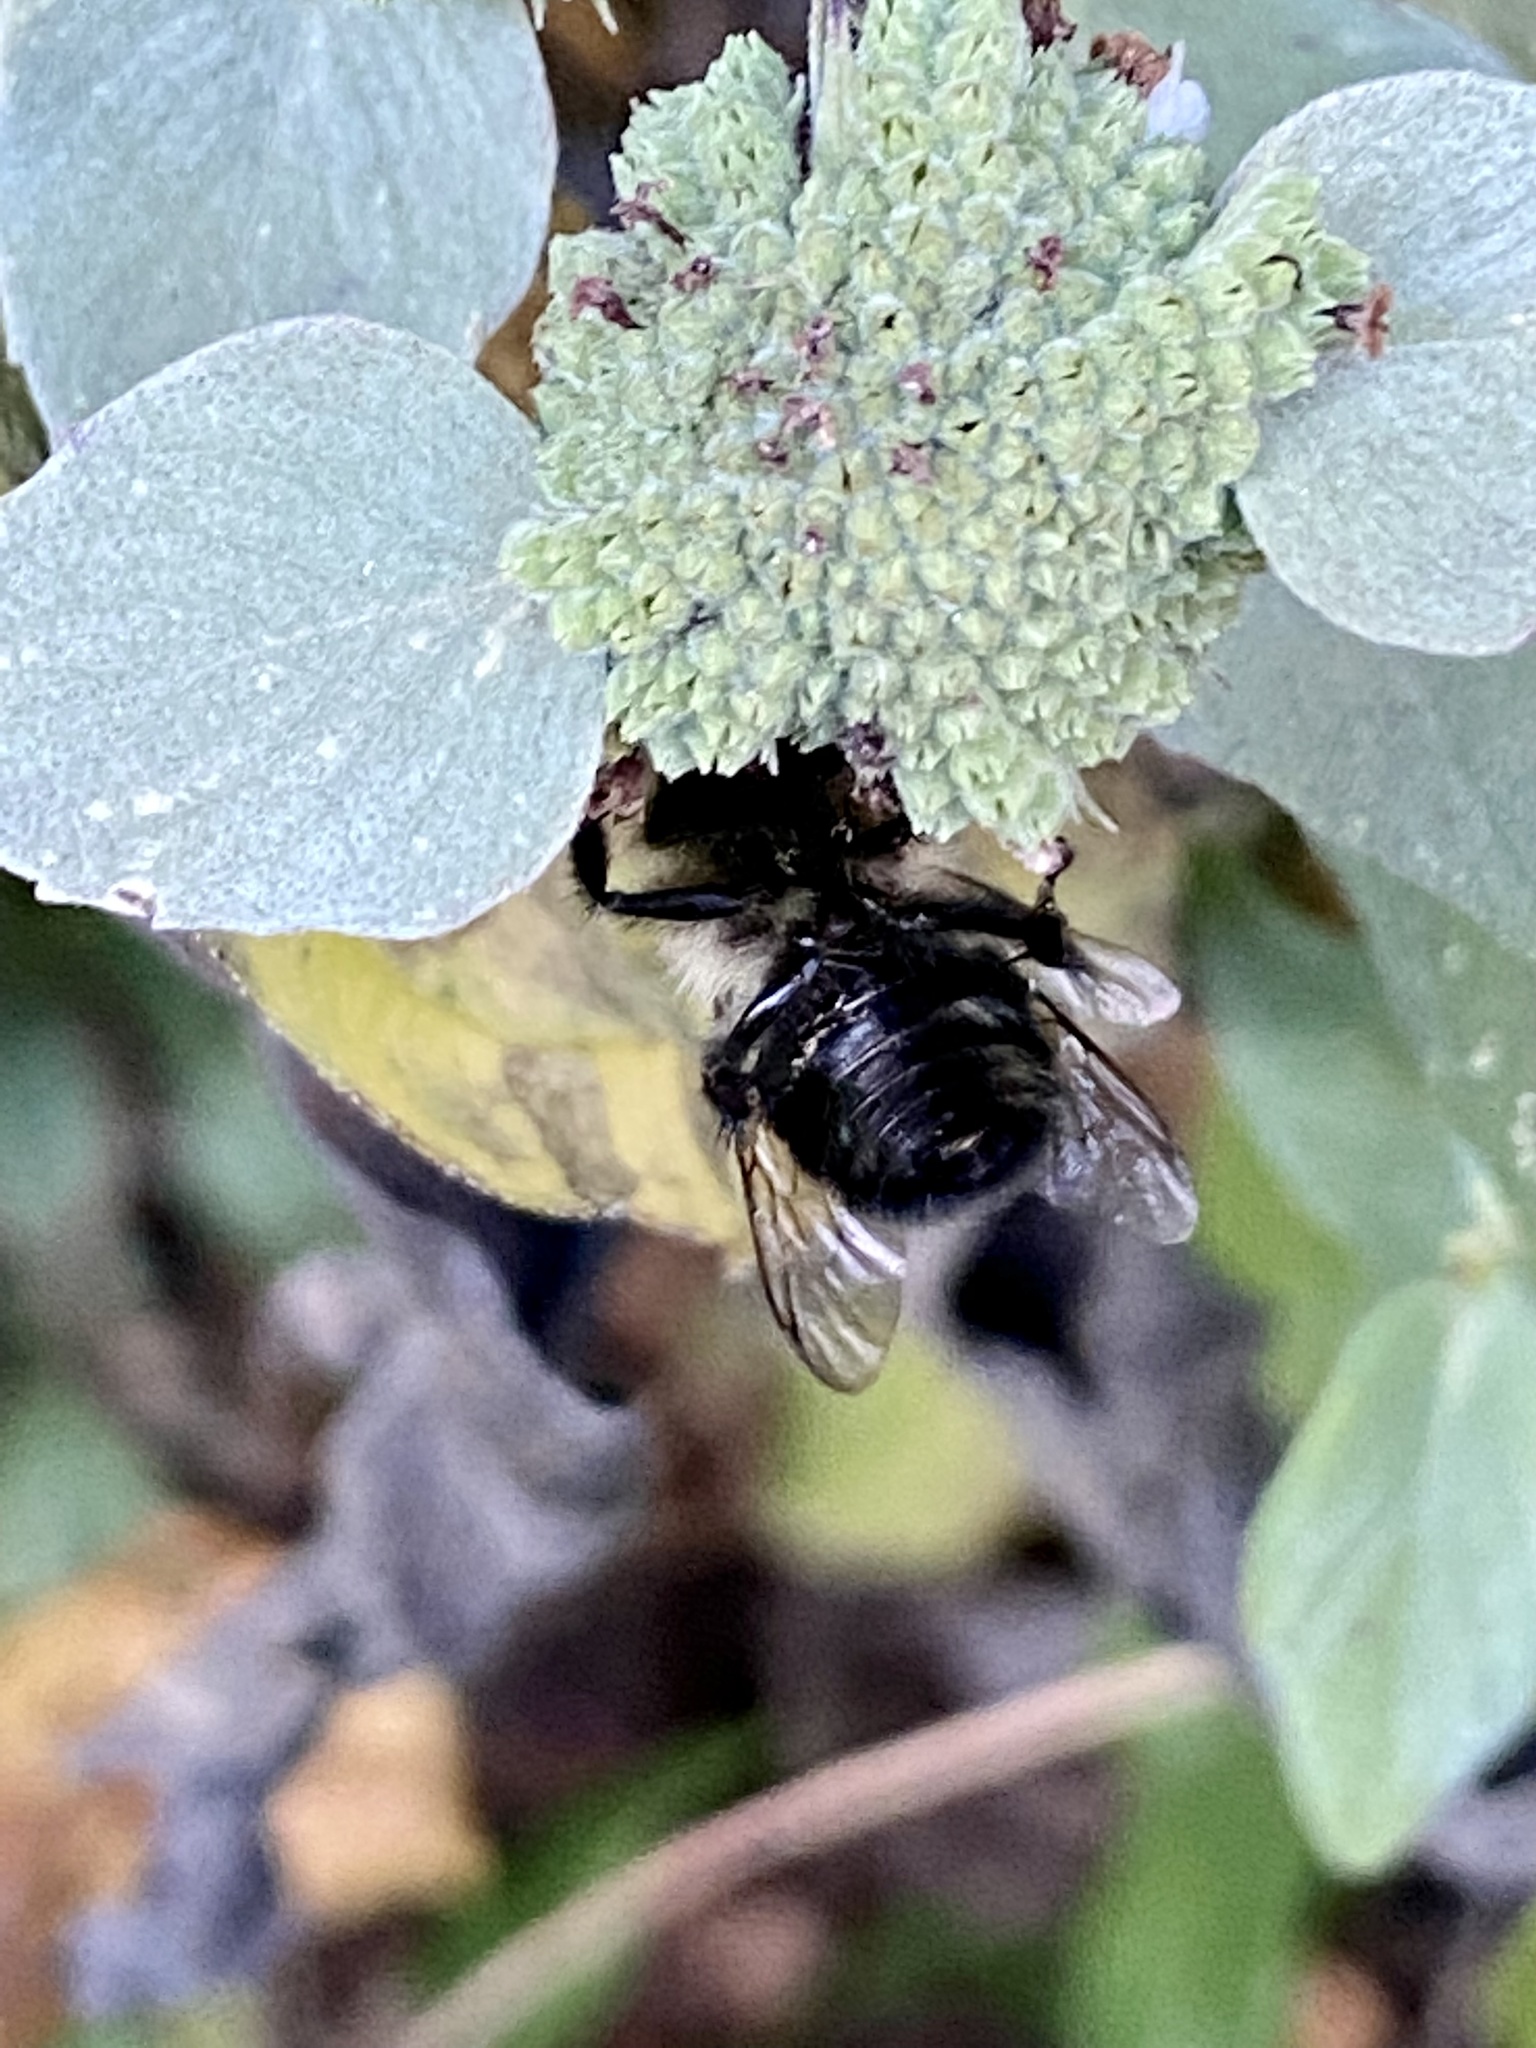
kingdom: Animalia
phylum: Arthropoda
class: Insecta
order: Hymenoptera
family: Apidae
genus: Bombus
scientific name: Bombus impatiens
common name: Common eastern bumble bee
